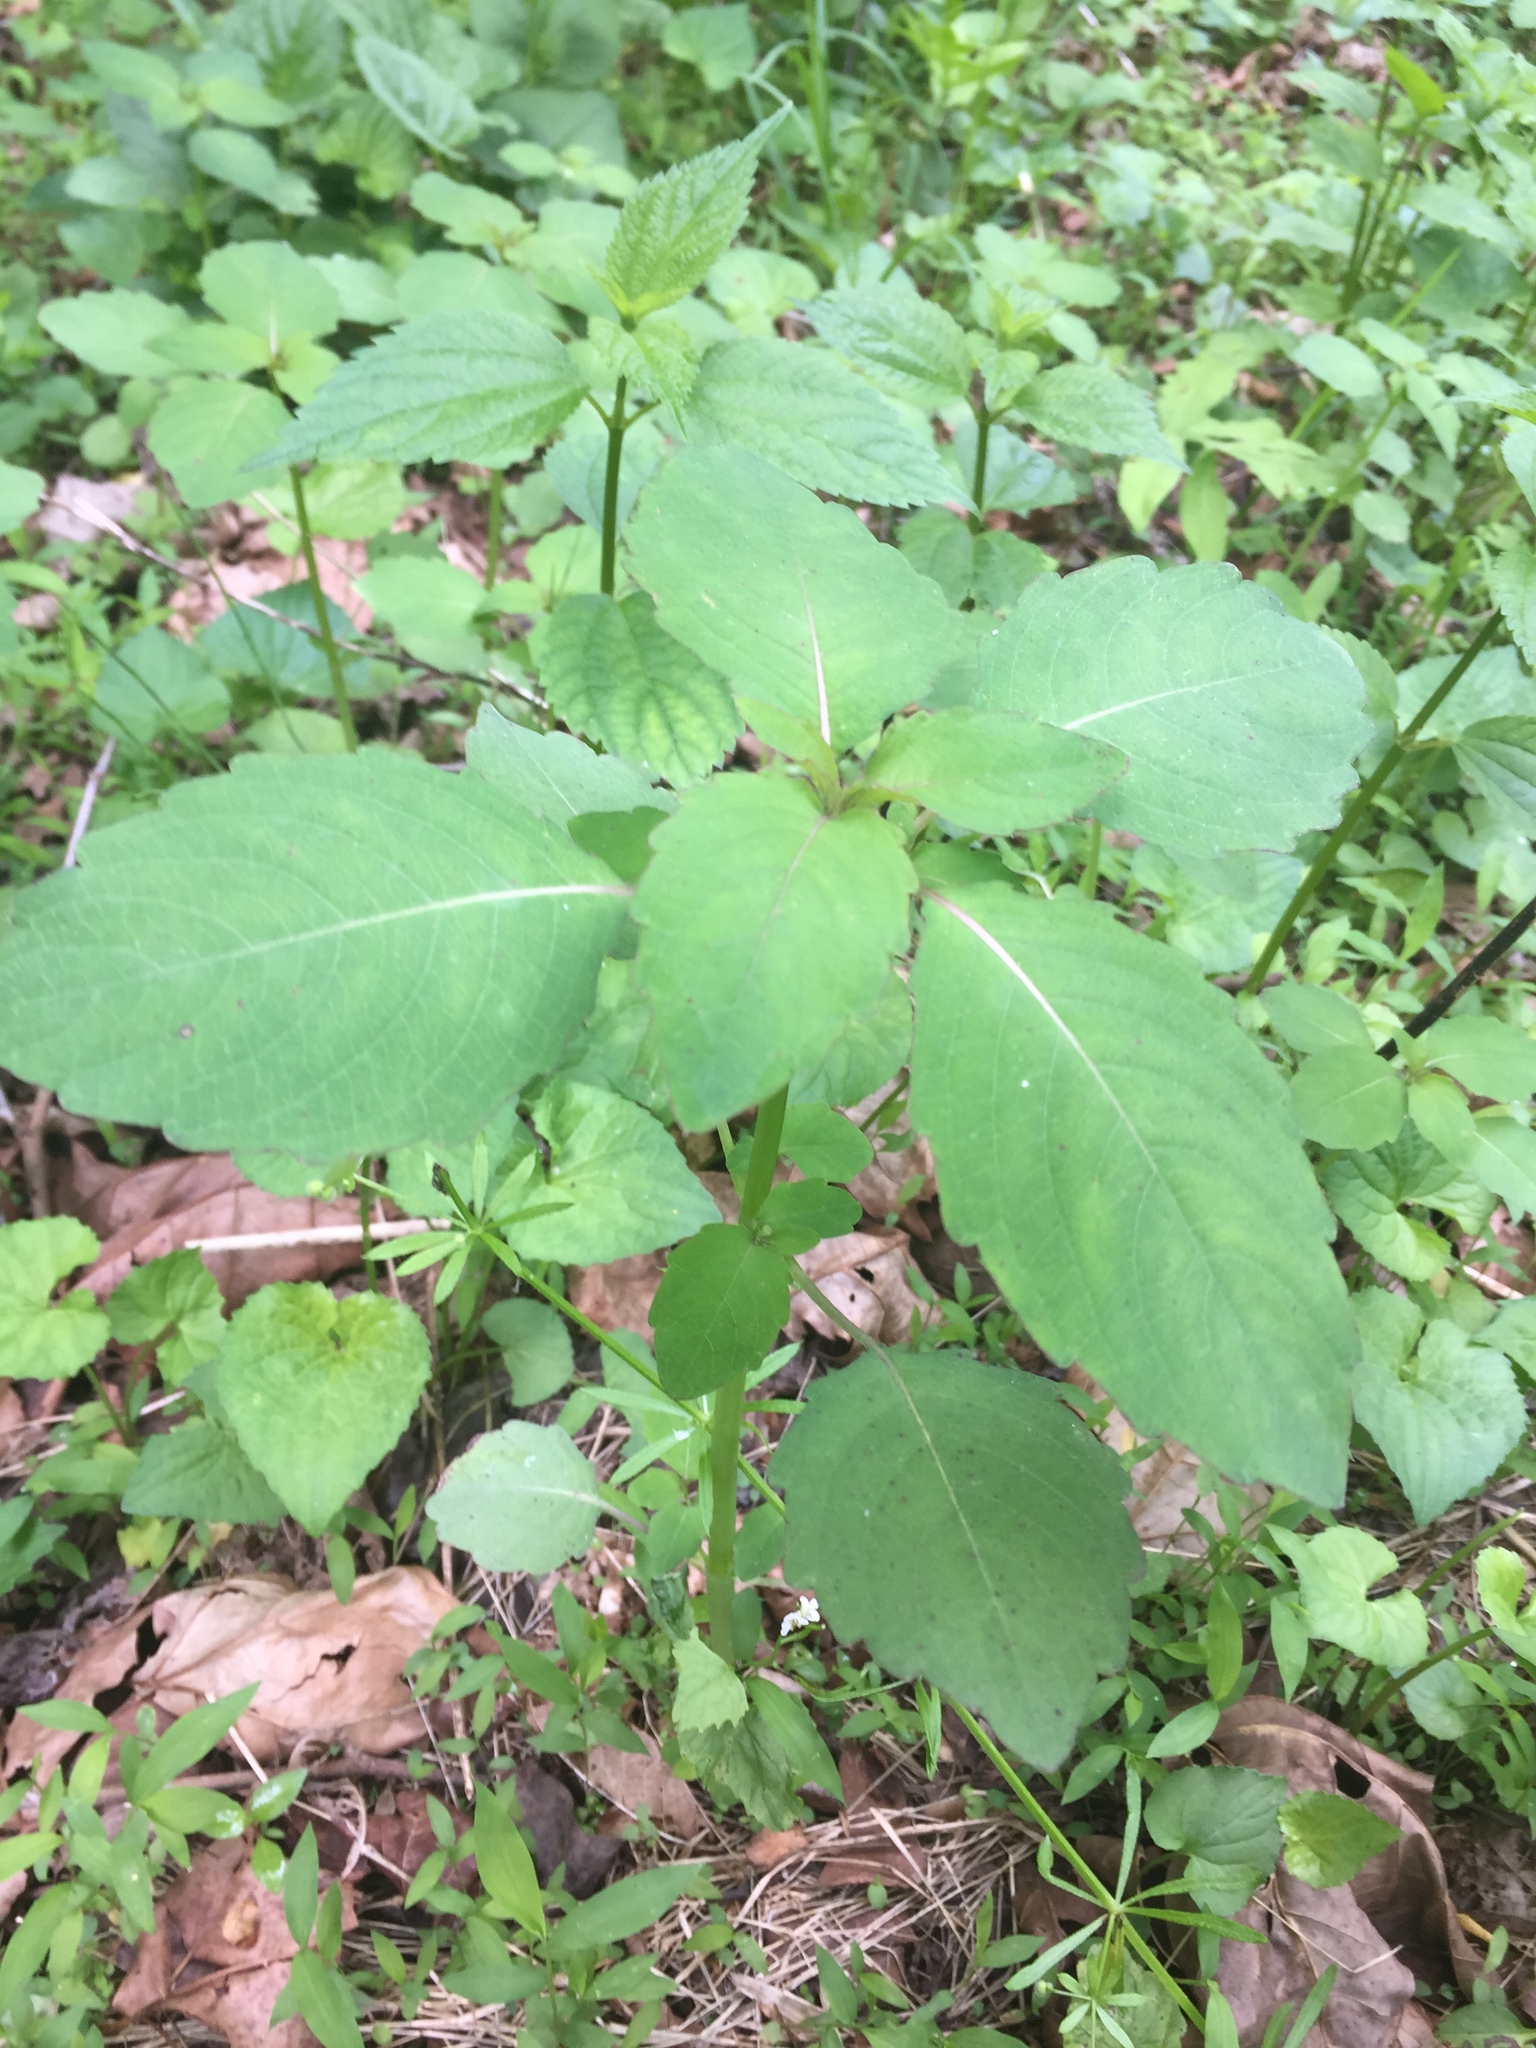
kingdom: Plantae
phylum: Tracheophyta
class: Magnoliopsida
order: Ericales
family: Balsaminaceae
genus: Impatiens
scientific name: Impatiens capensis
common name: Orange balsam
